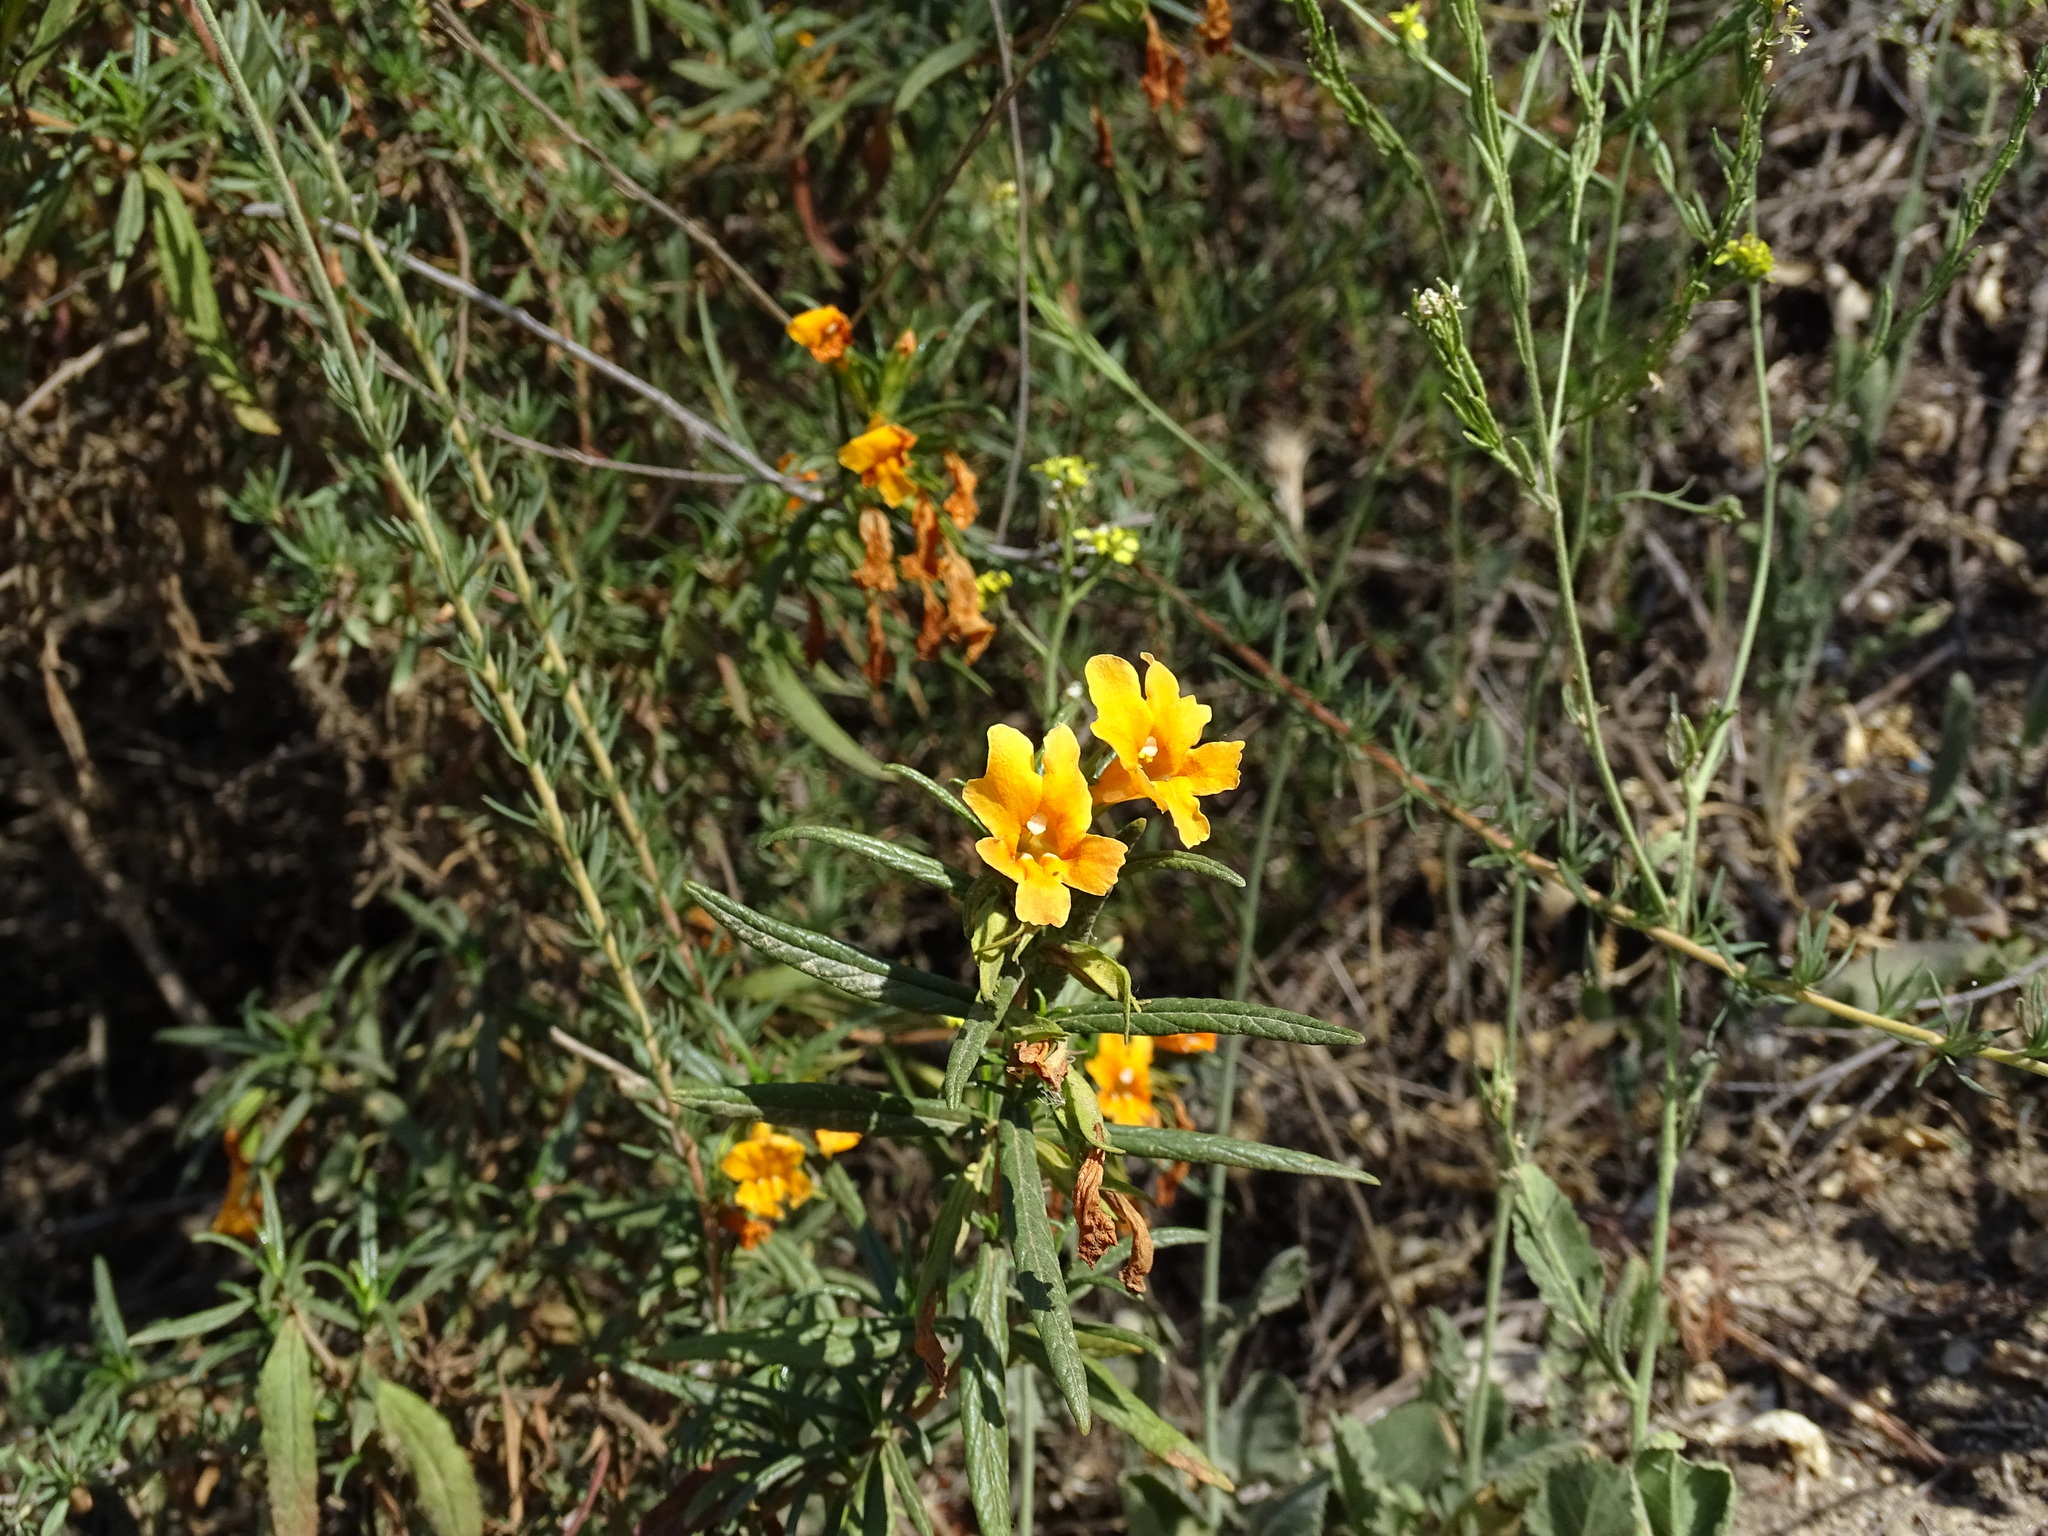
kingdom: Plantae
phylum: Tracheophyta
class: Magnoliopsida
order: Lamiales
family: Phrymaceae
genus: Diplacus
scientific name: Diplacus australis
